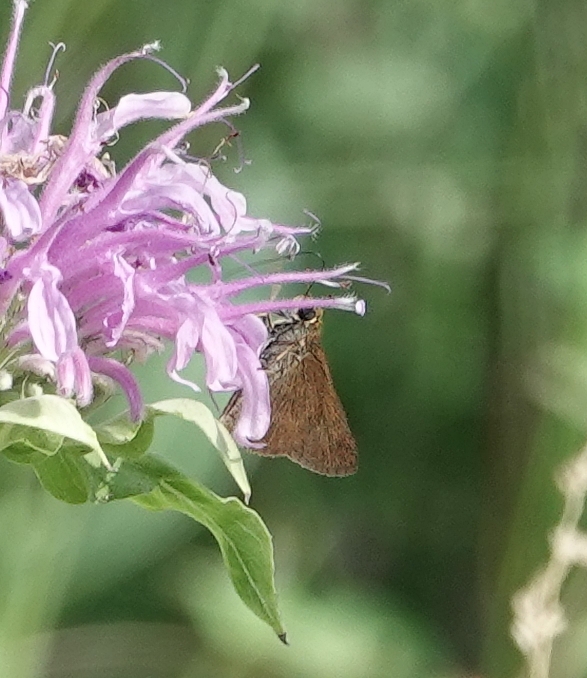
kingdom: Animalia
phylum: Arthropoda
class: Insecta
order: Lepidoptera
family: Hesperiidae
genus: Euphyes
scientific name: Euphyes vestris
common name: Dun skipper
